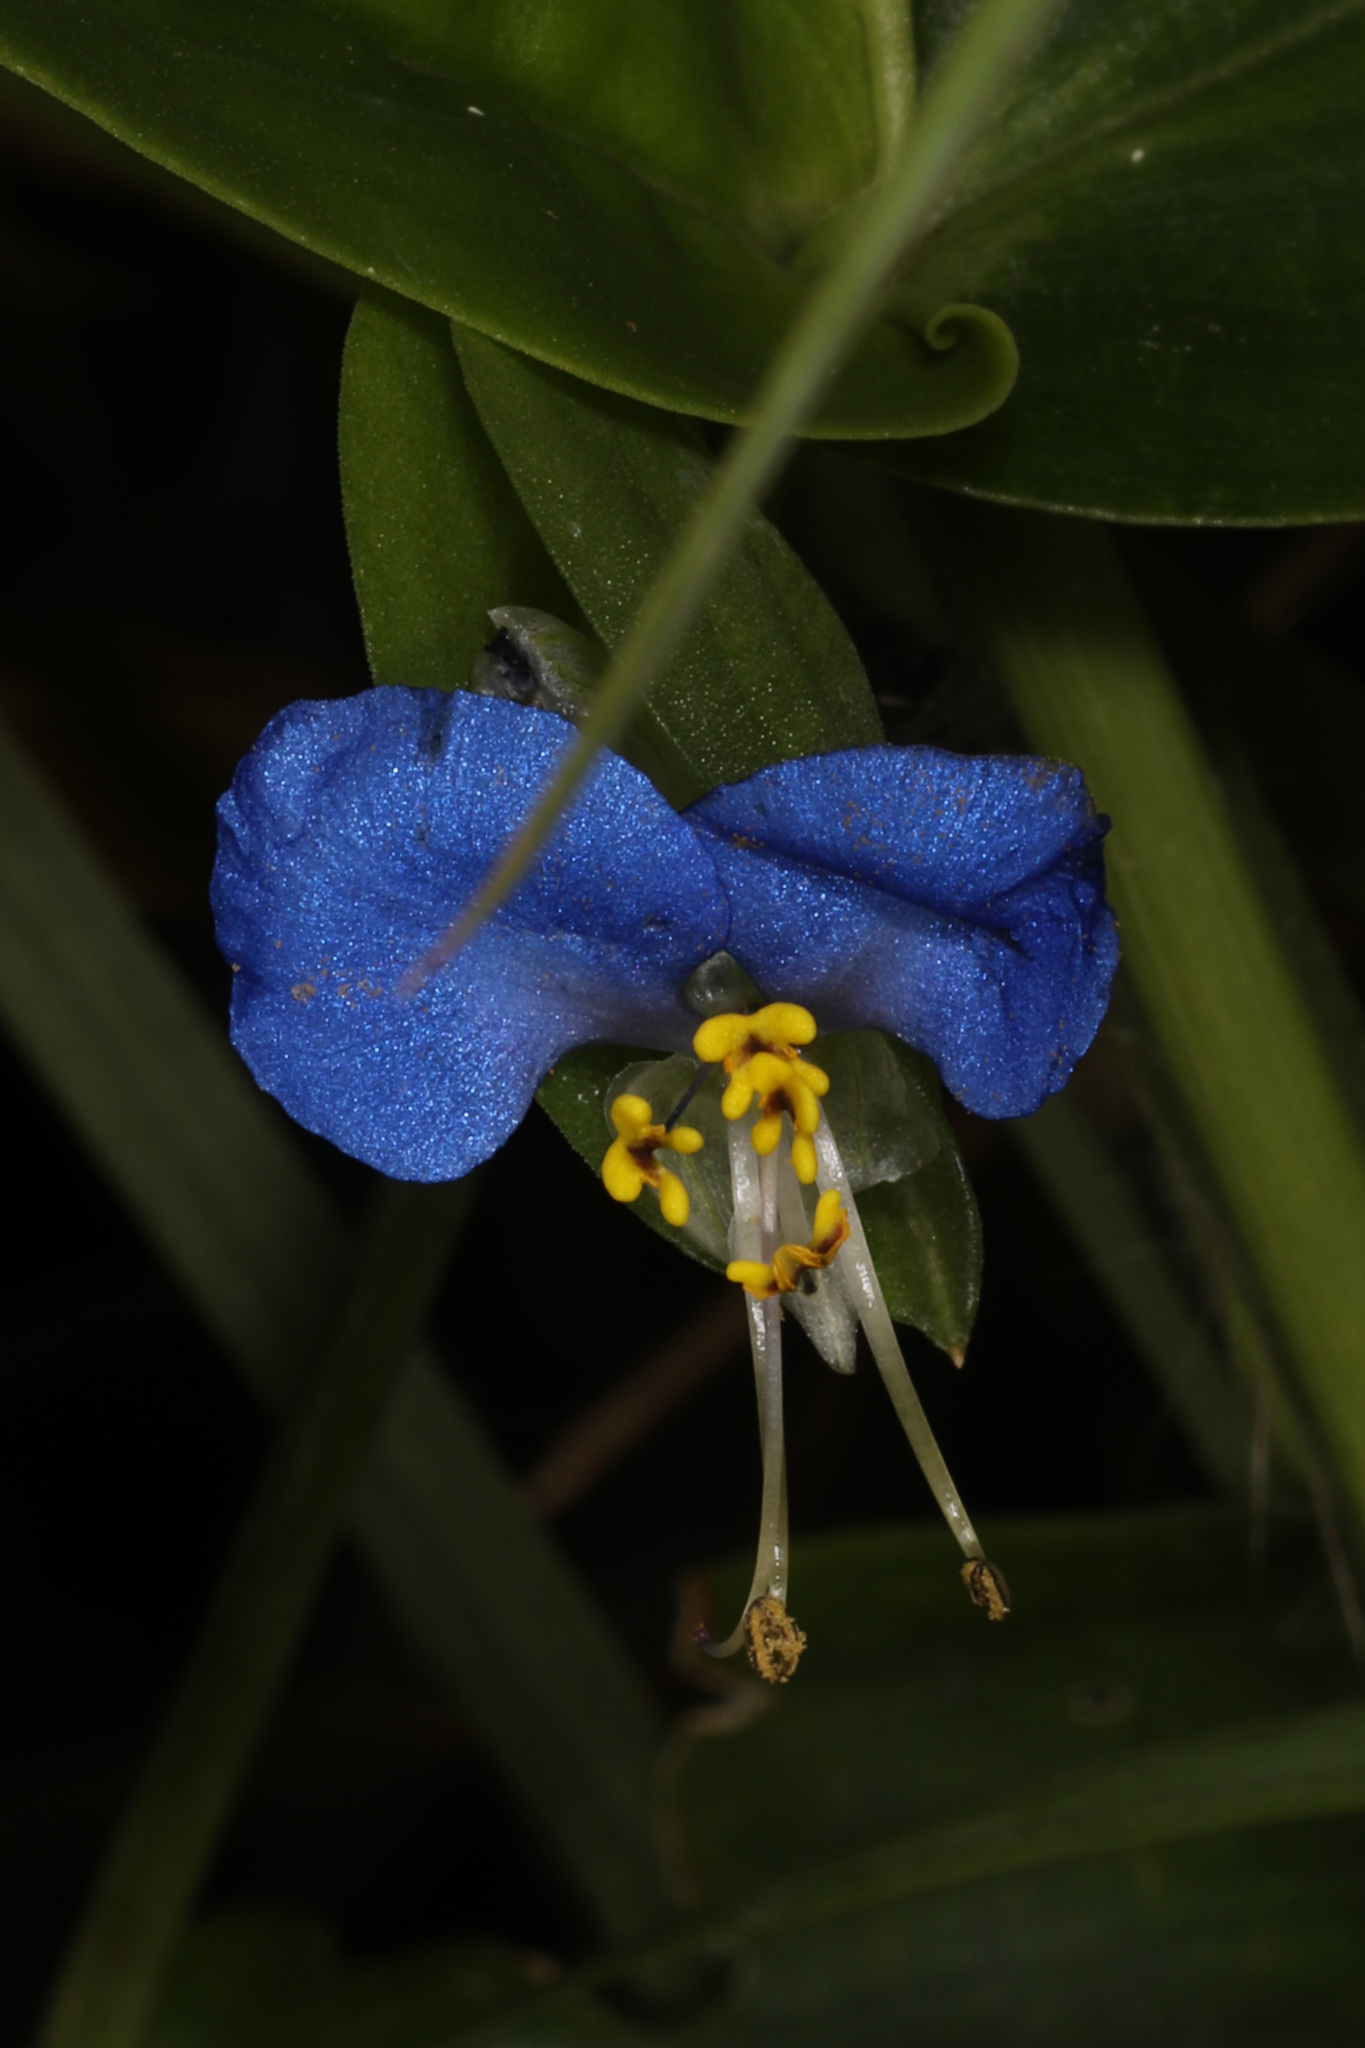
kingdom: Plantae
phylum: Tracheophyta
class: Liliopsida
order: Commelinales
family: Commelinaceae
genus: Commelina
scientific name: Commelina communis
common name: Asiatic dayflower
